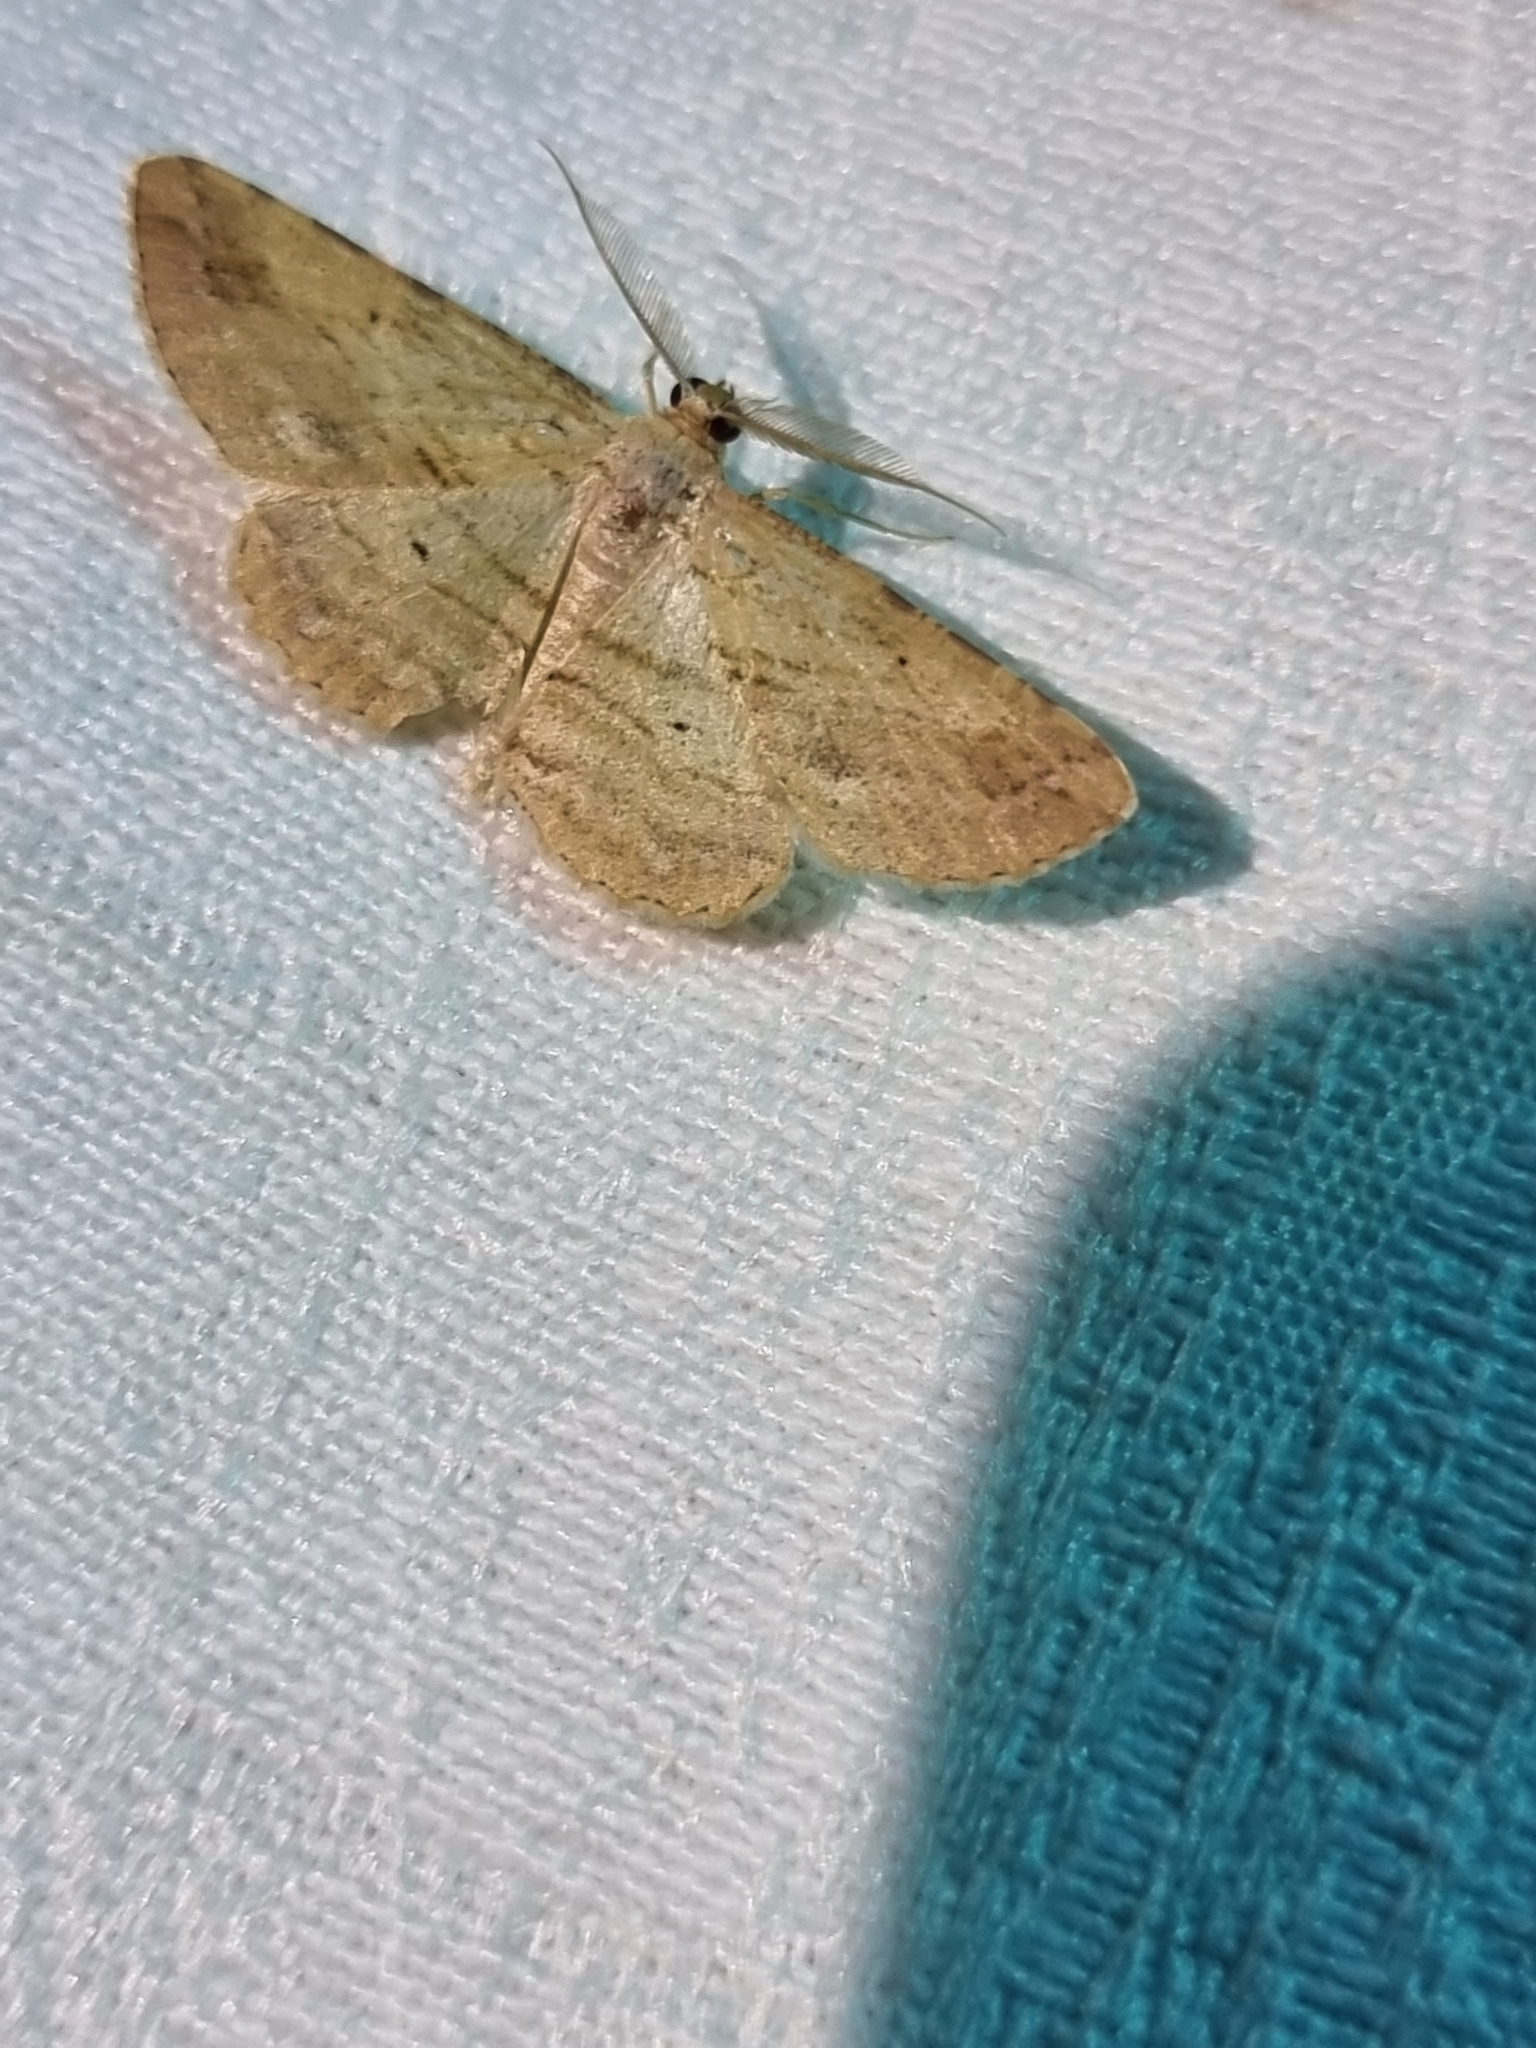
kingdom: Animalia
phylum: Arthropoda
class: Insecta
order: Lepidoptera
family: Geometridae
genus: Syneora
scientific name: Syneora lithina
